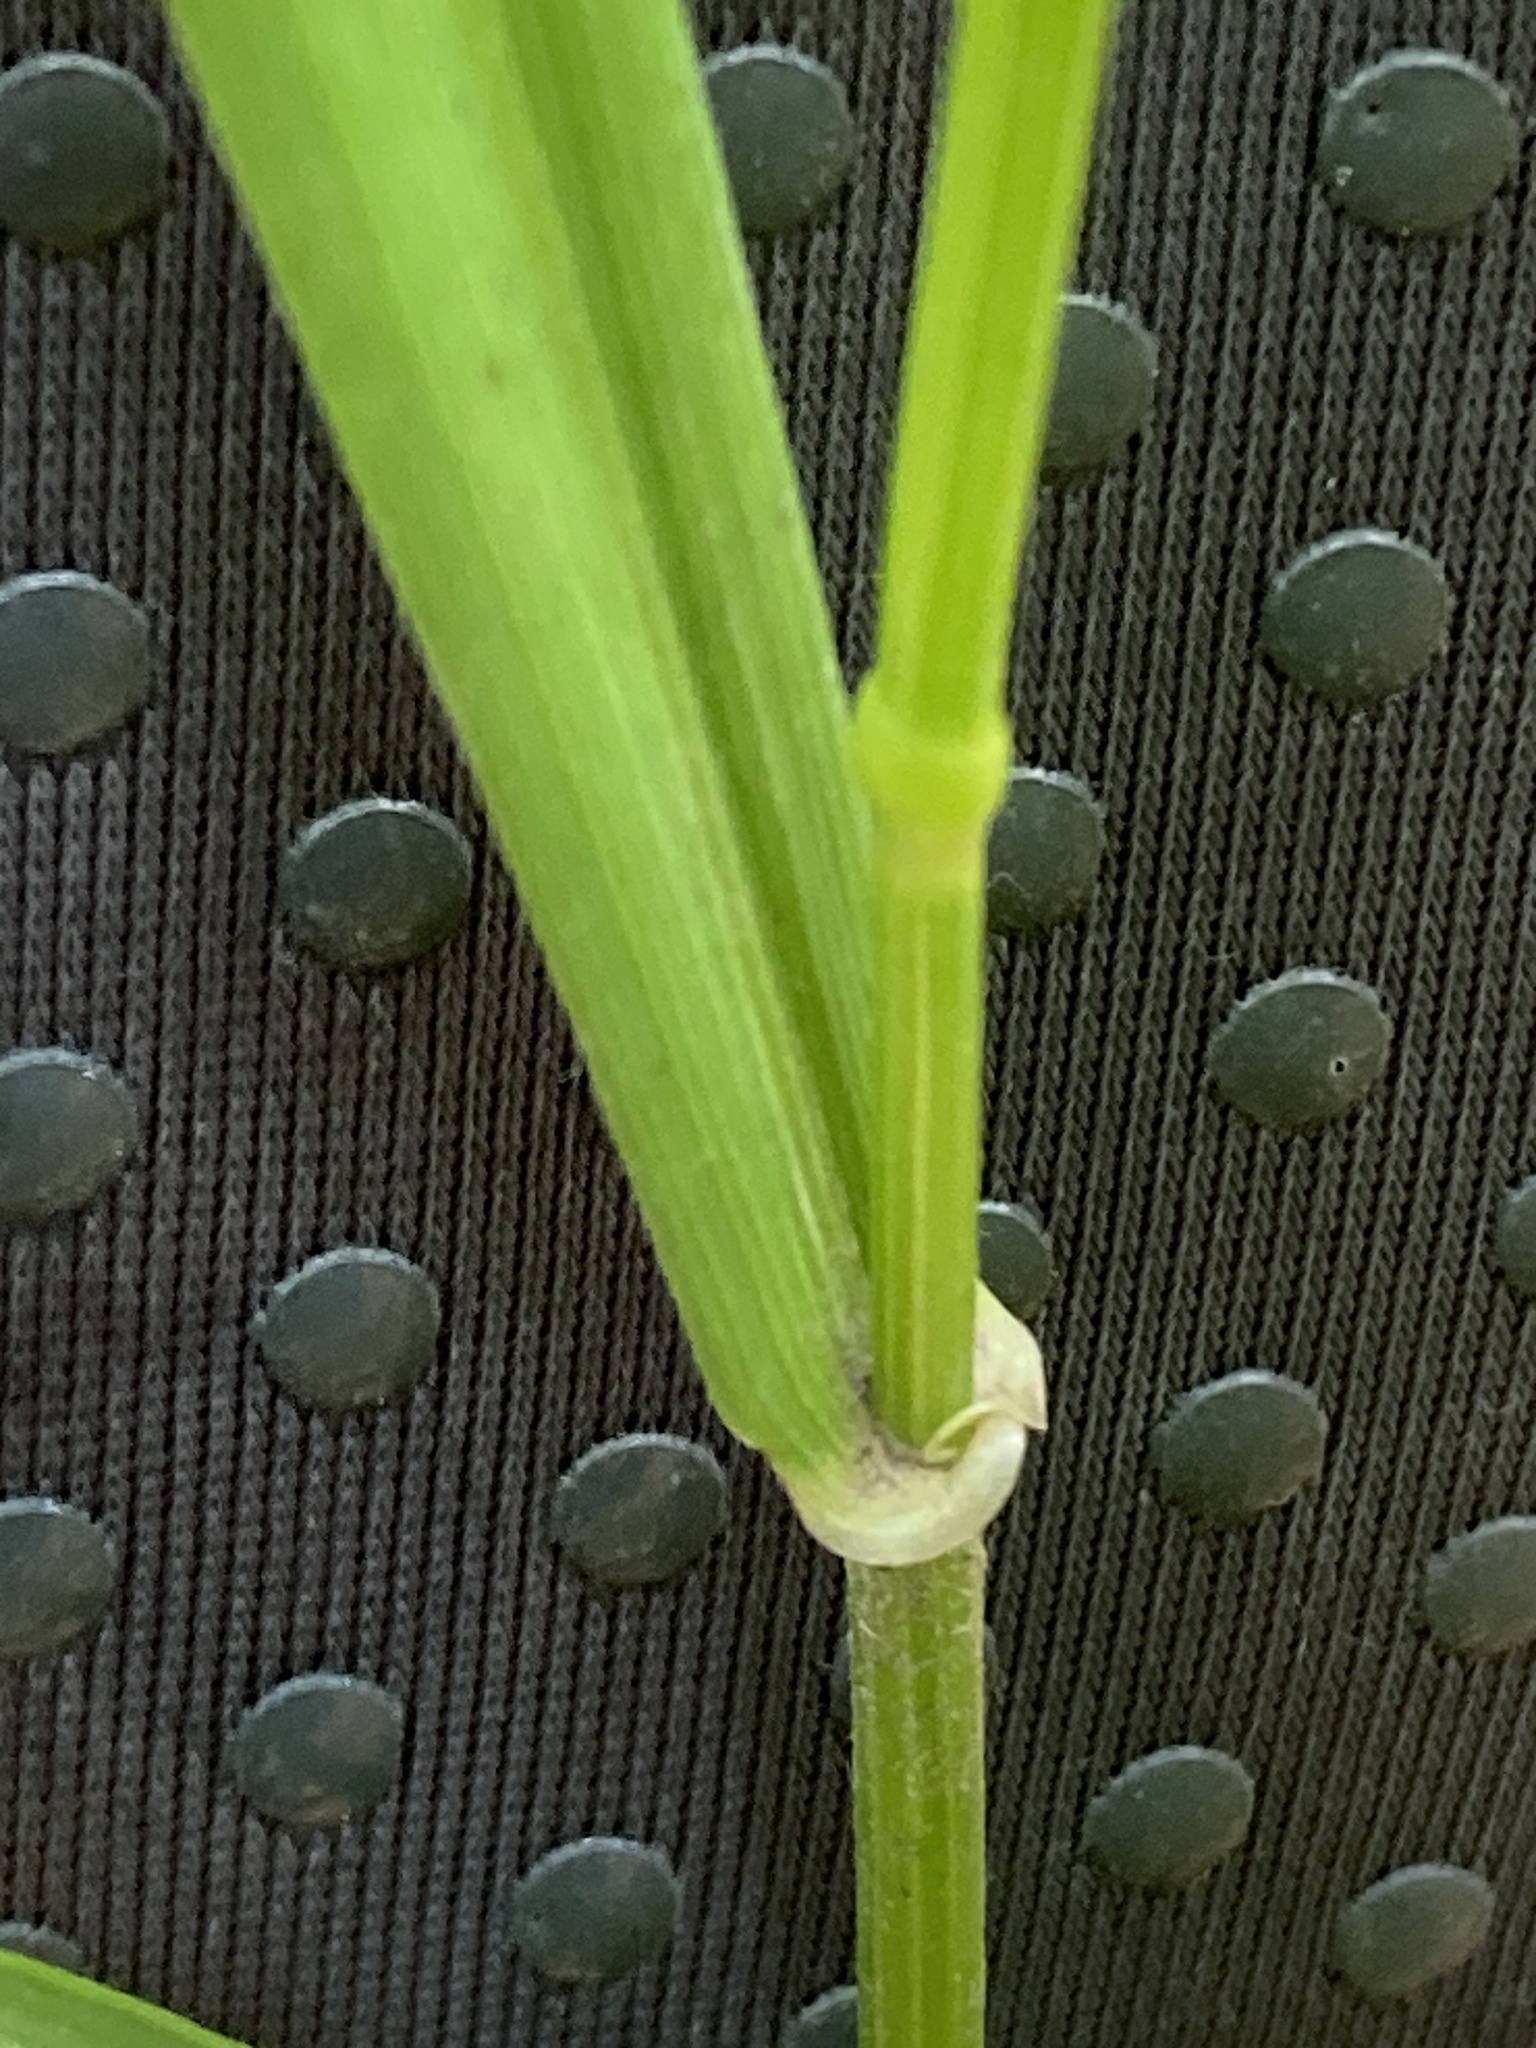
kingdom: Plantae
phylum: Tracheophyta
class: Liliopsida
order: Poales
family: Poaceae
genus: Lolium
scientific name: Lolium giganteum
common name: Giant fescue
